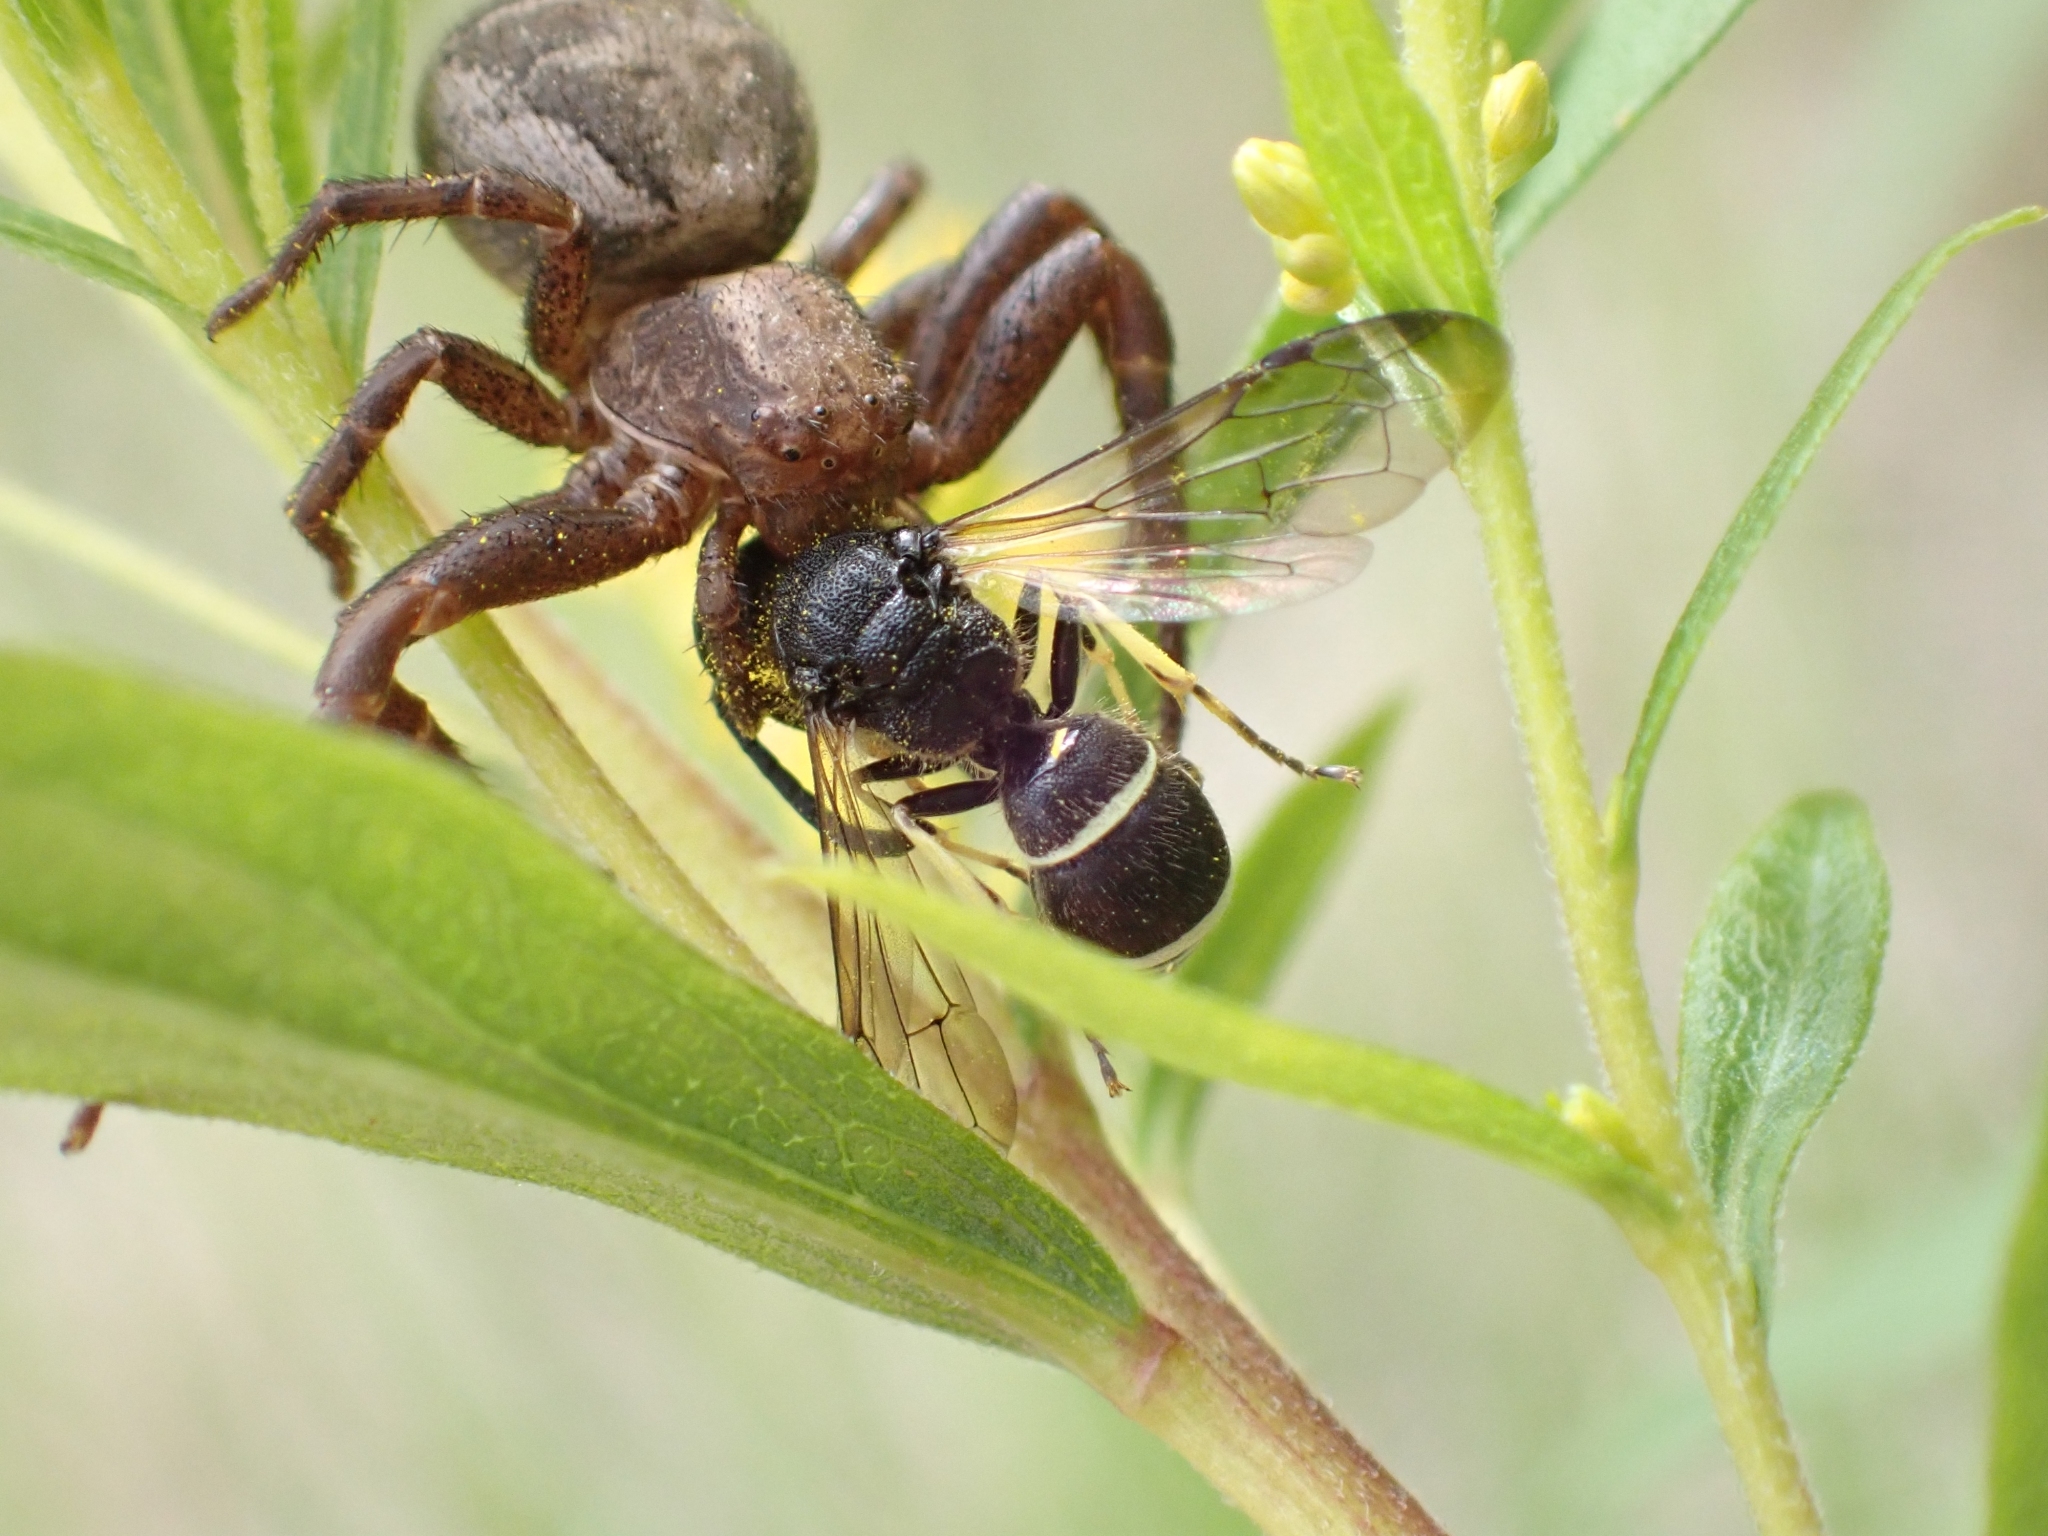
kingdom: Animalia
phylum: Arthropoda
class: Insecta
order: Hymenoptera
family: Vespidae
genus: Ancistrocerus
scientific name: Ancistrocerus
